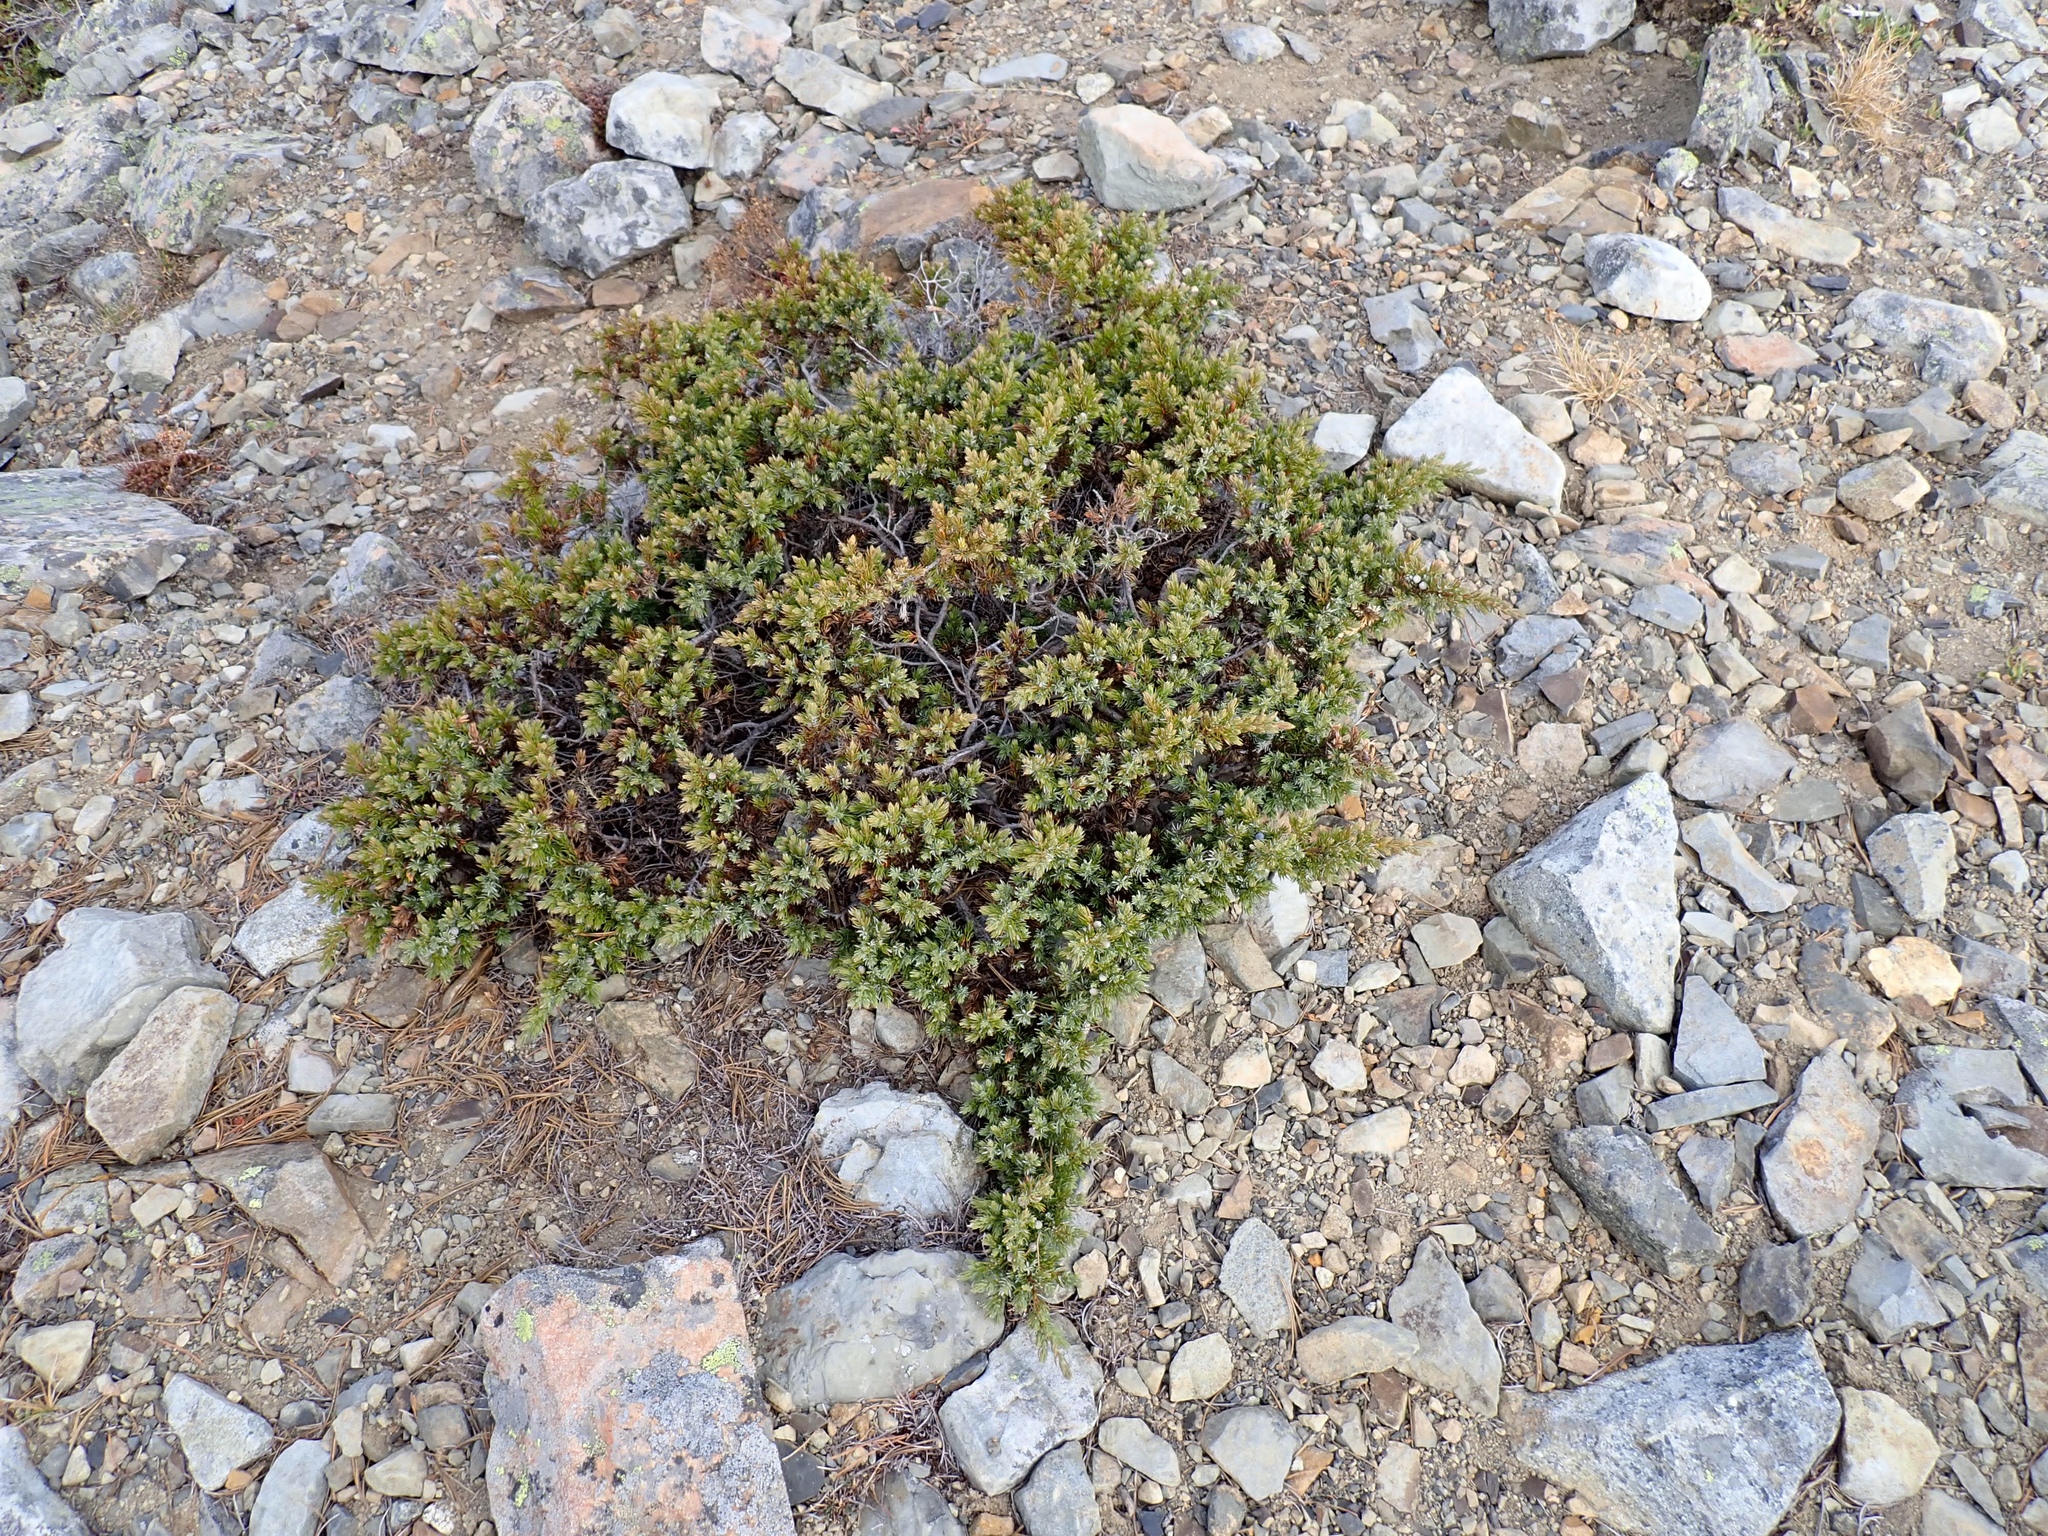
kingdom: Plantae
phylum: Tracheophyta
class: Pinopsida
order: Pinales
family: Cupressaceae
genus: Juniperus
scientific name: Juniperus communis
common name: Common juniper
